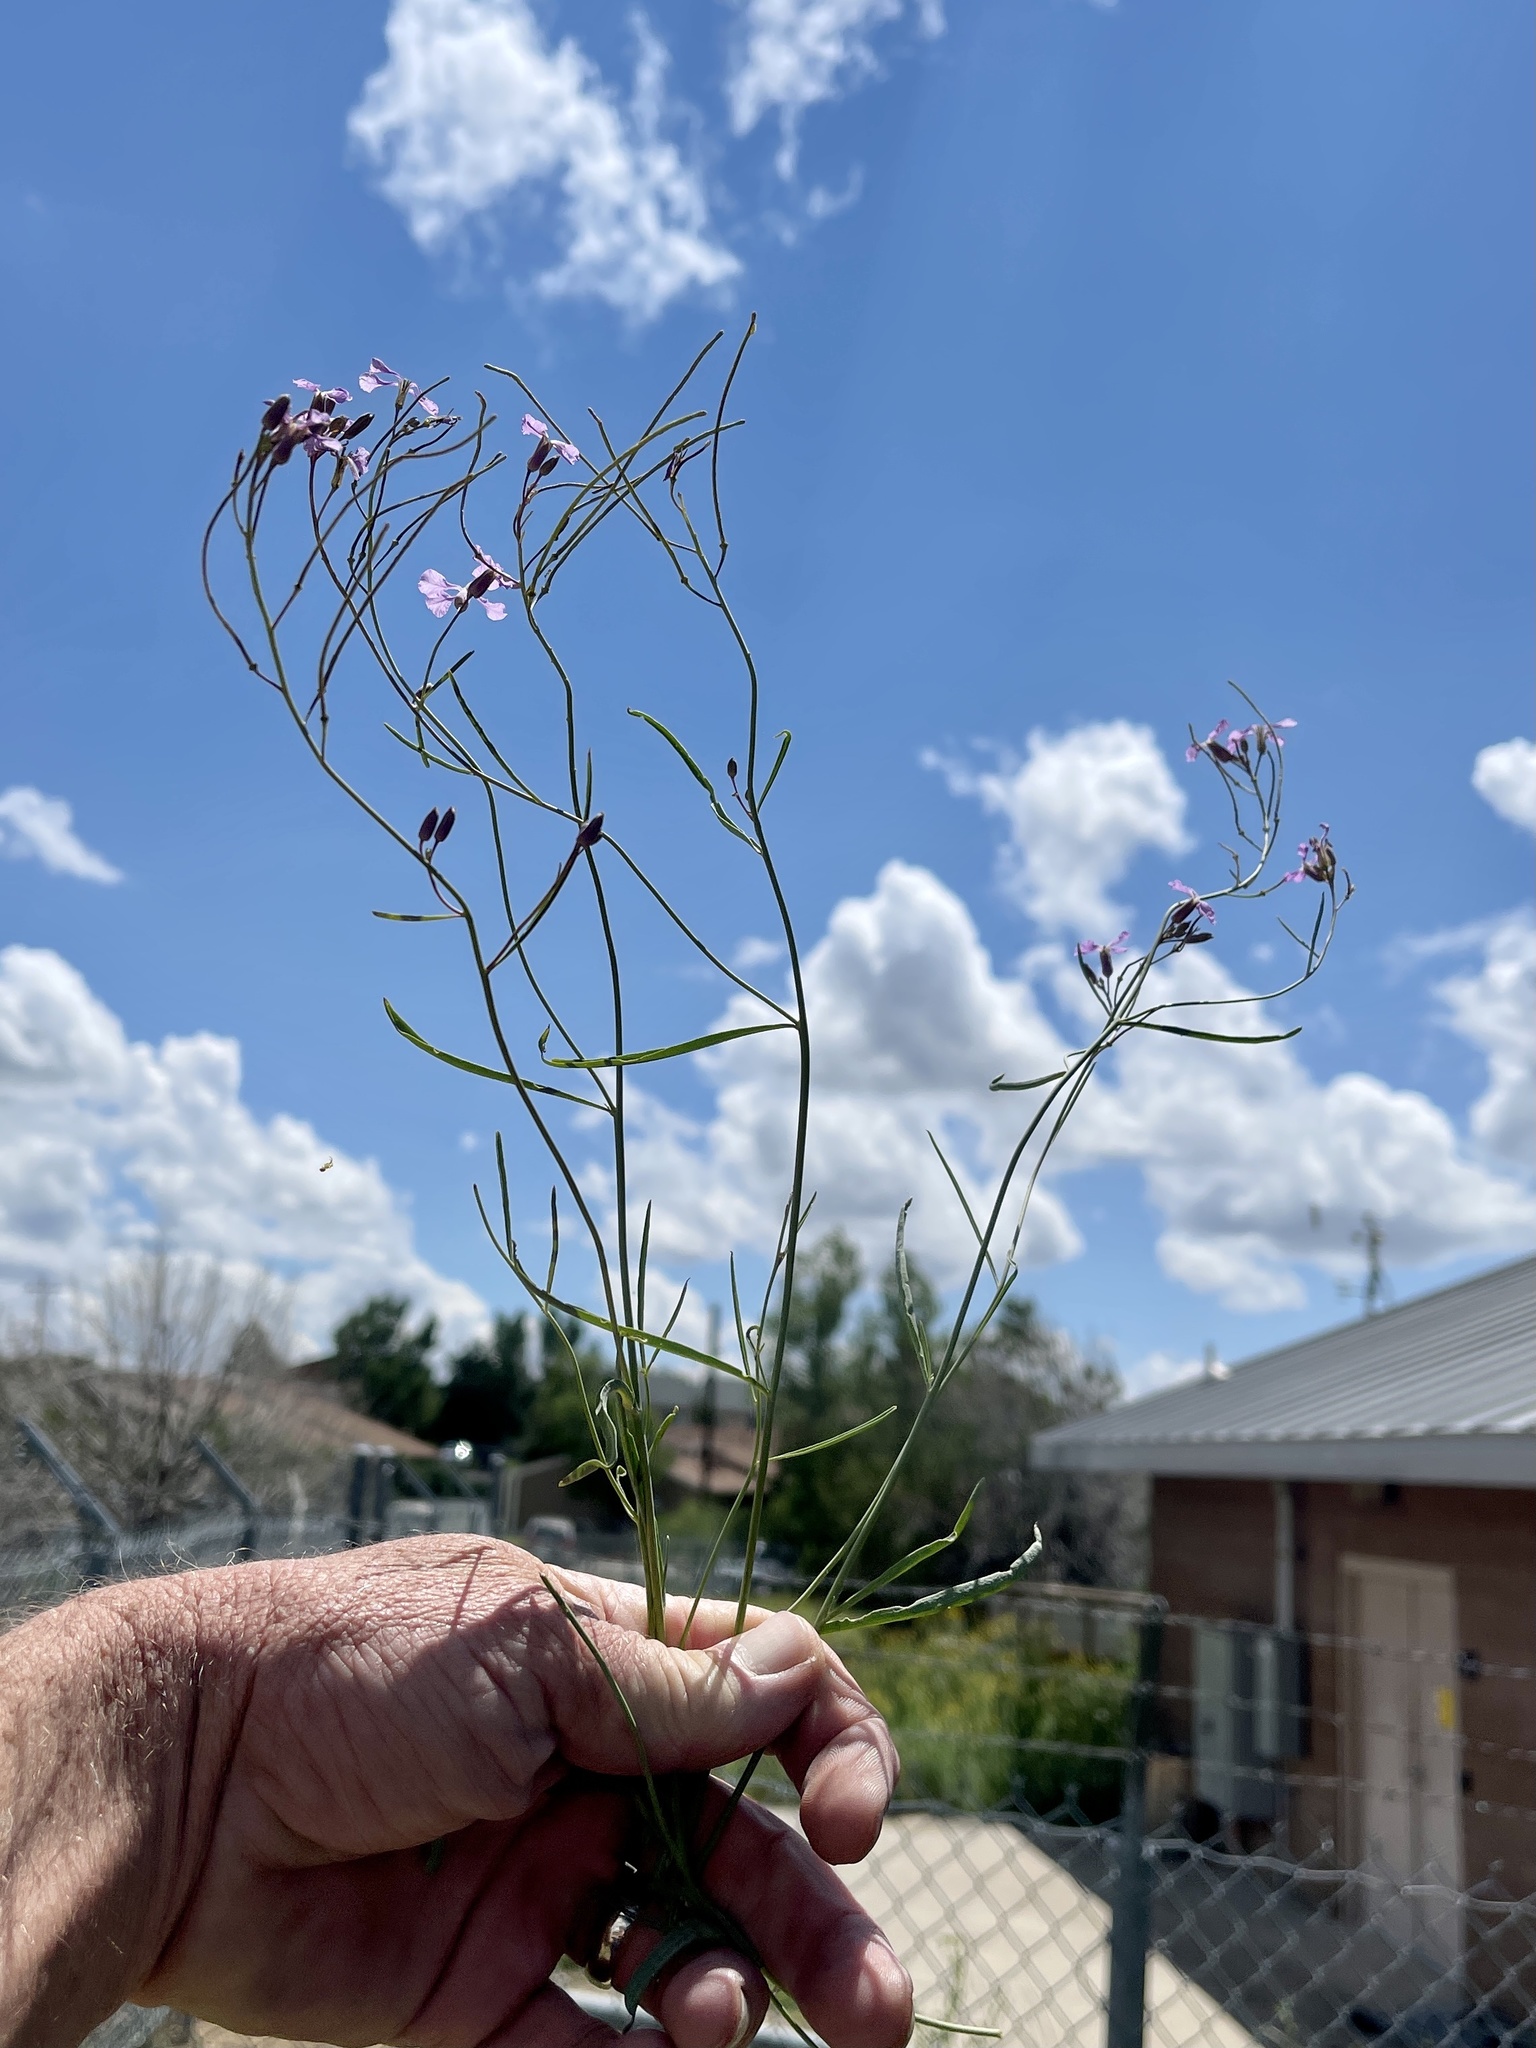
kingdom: Plantae
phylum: Tracheophyta
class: Magnoliopsida
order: Brassicales
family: Brassicaceae
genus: Hesperidanthus
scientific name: Hesperidanthus linearifolius
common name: Slim-leaf plains mustard
